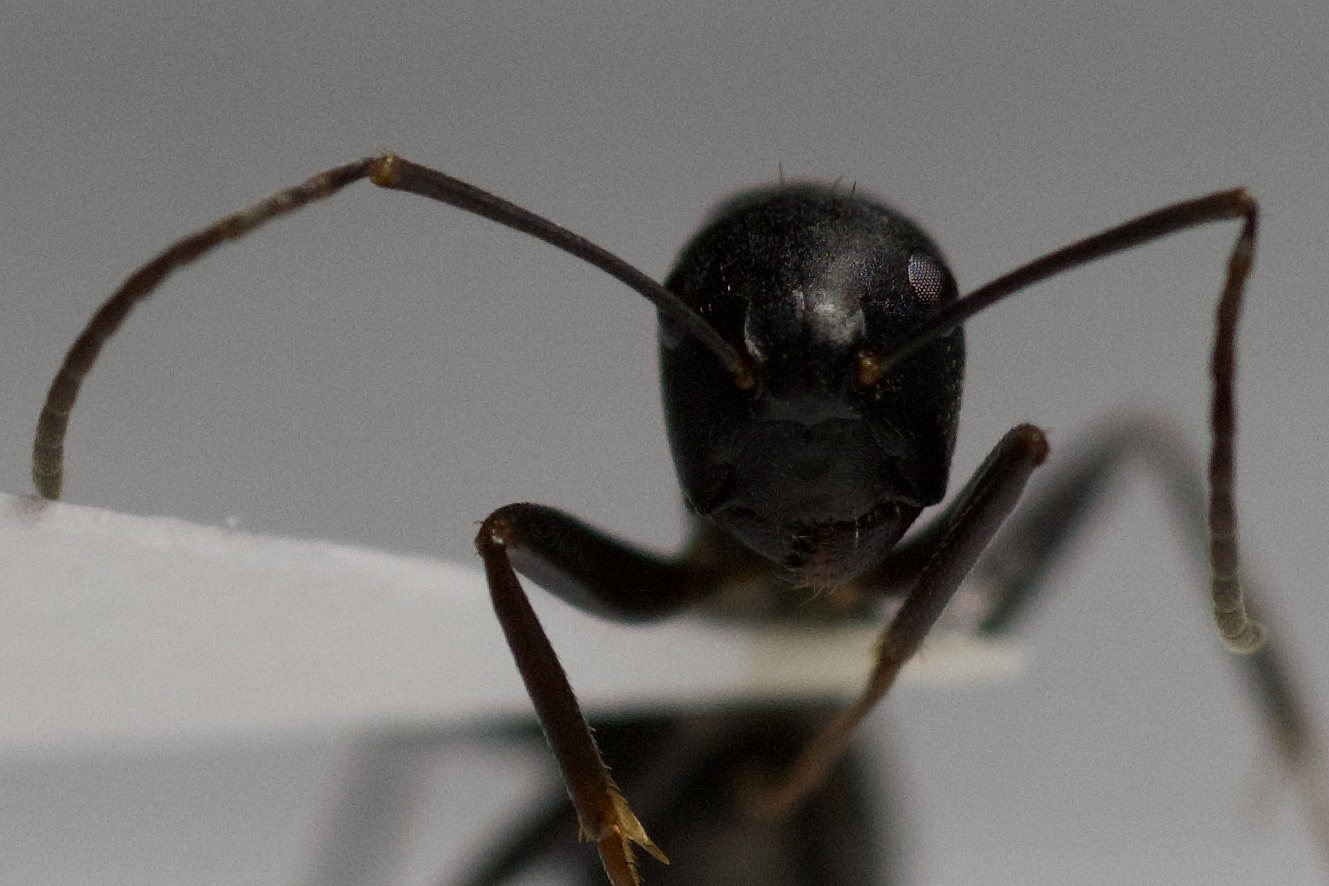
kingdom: Animalia
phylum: Arthropoda
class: Insecta
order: Hymenoptera
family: Formicidae
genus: Camponotus
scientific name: Camponotus pennsylvanicus
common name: Black carpenter ant
